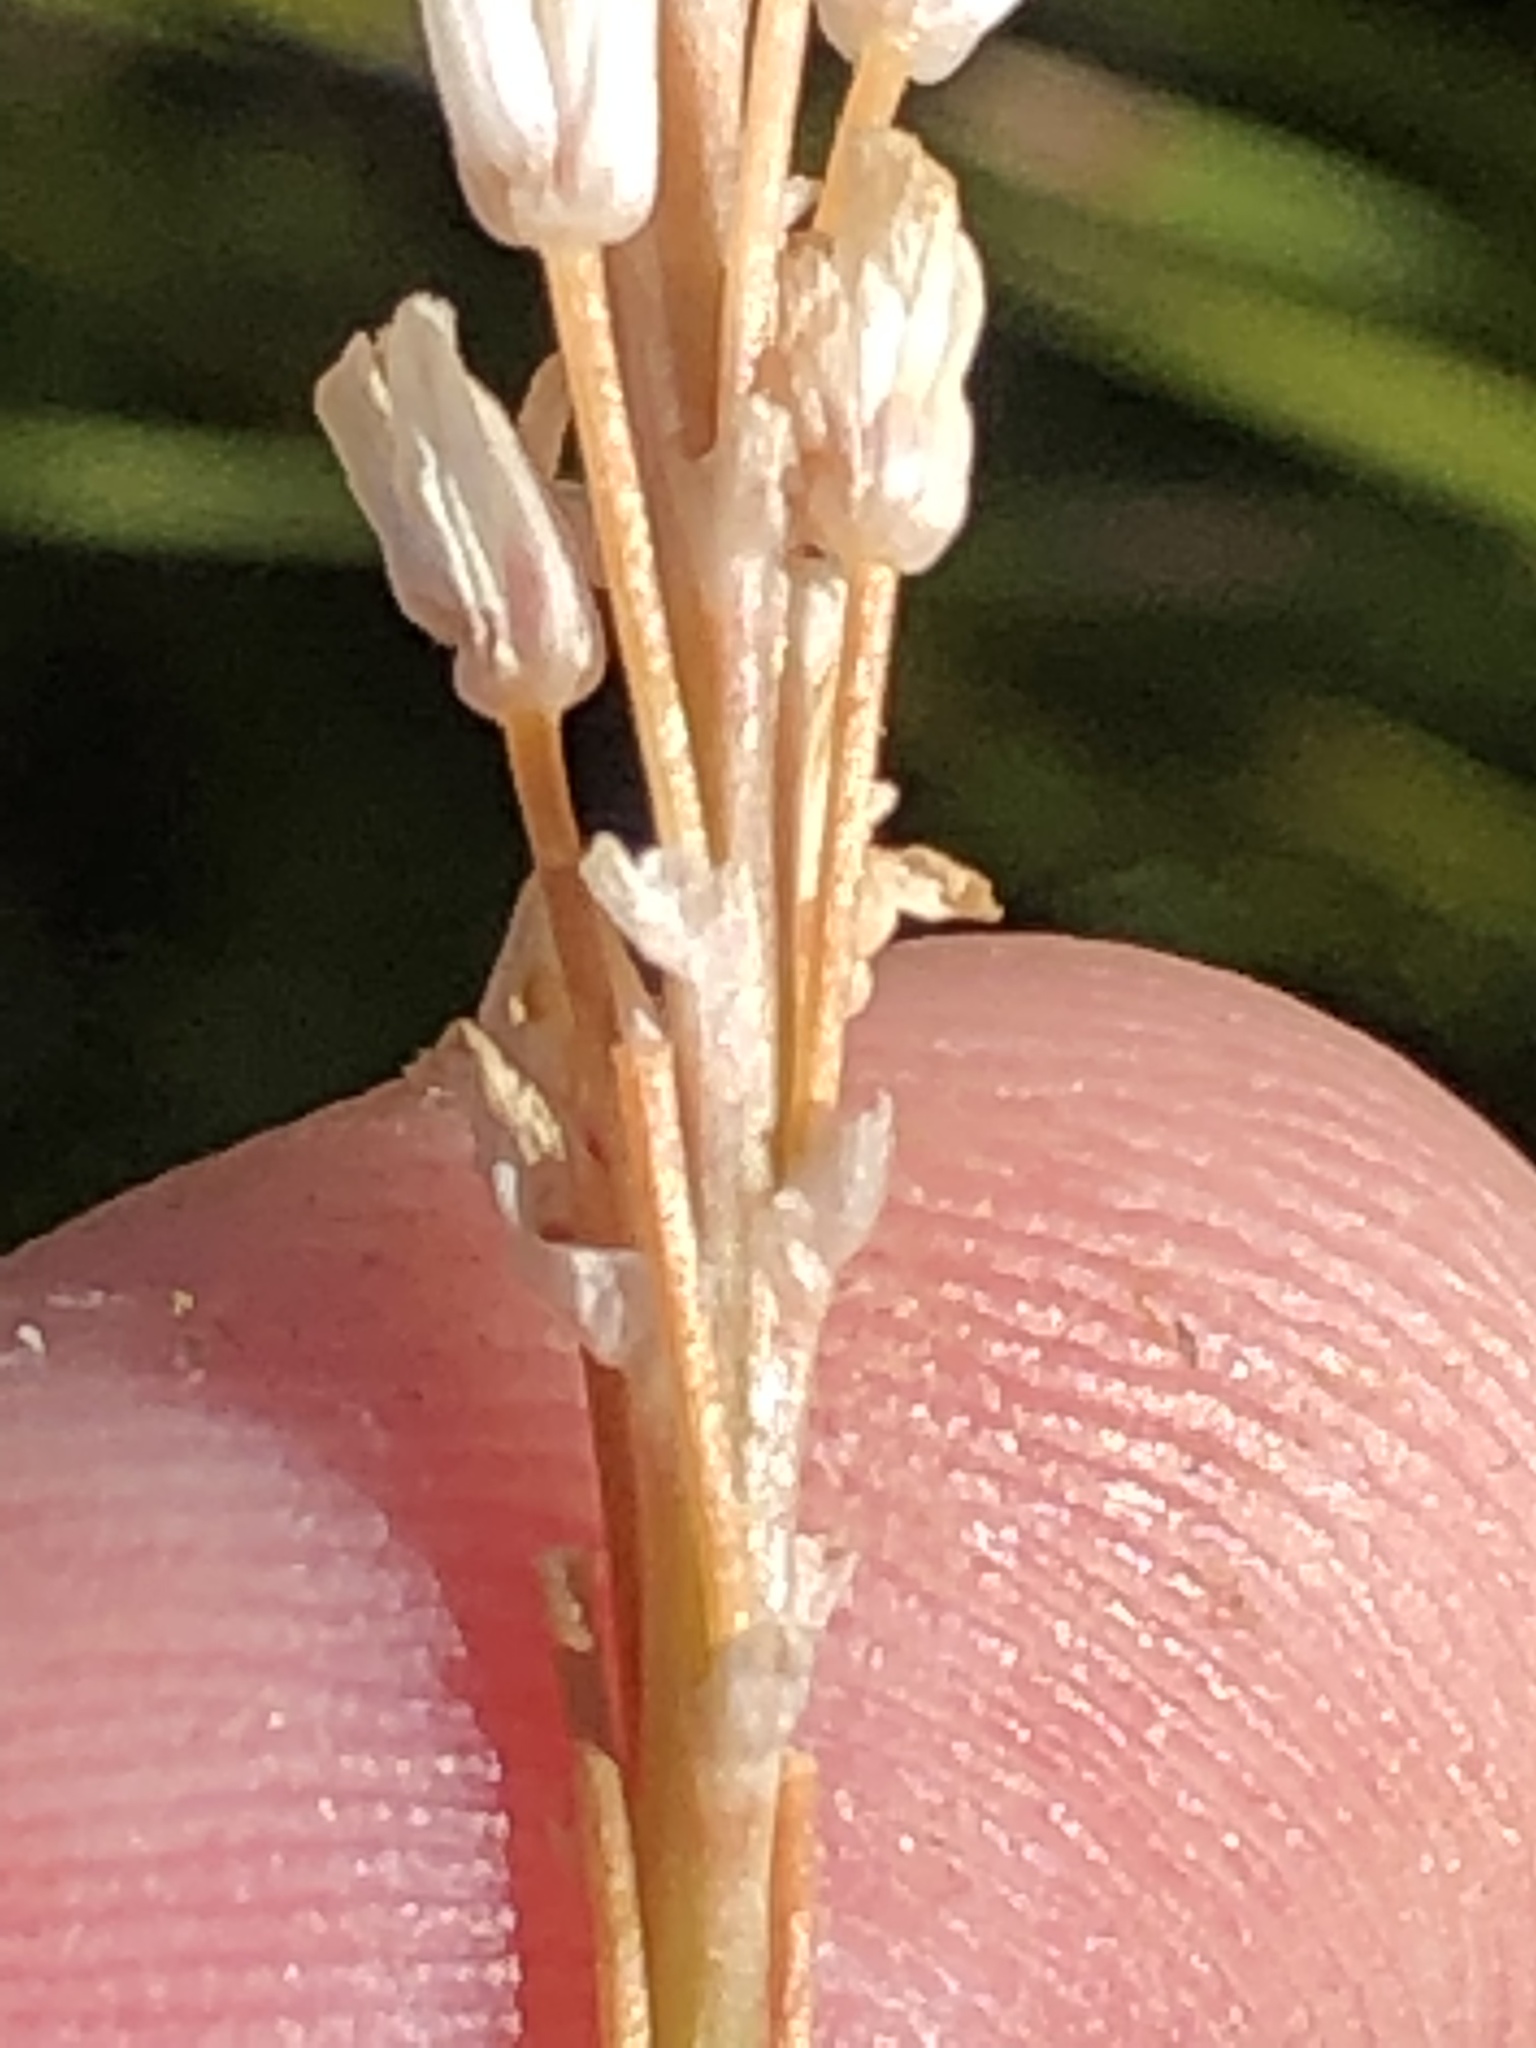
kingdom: Plantae
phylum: Tracheophyta
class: Liliopsida
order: Asparagales
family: Asphodelaceae
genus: Bulbinella
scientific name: Bulbinella trinervis
